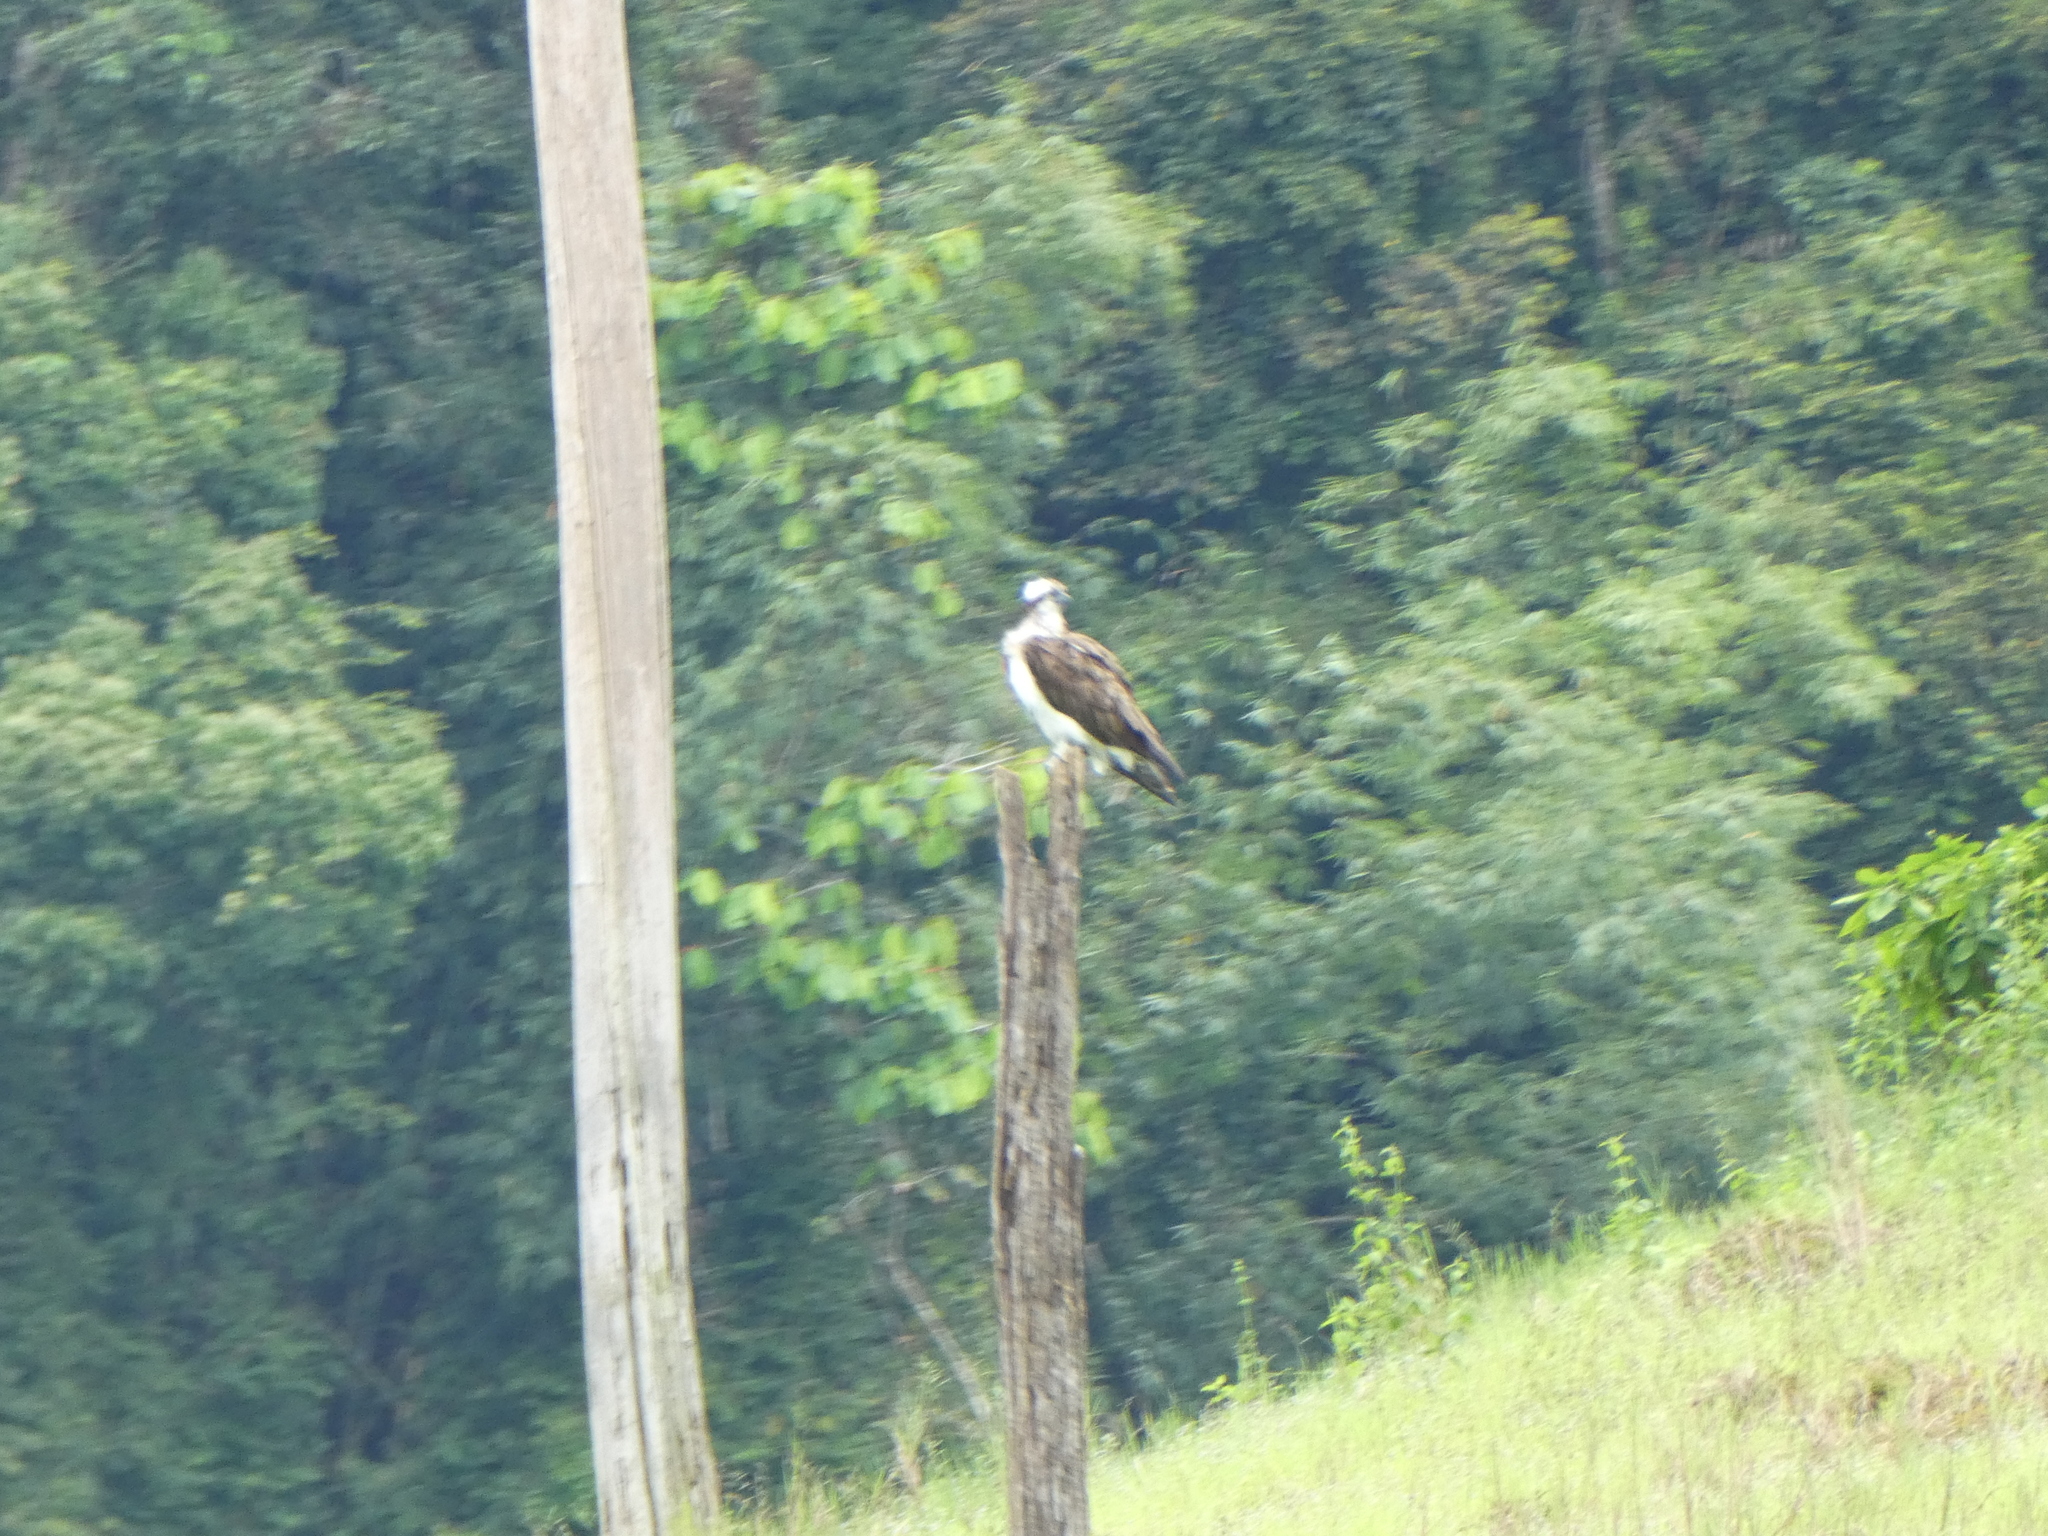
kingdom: Animalia
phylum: Chordata
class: Aves
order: Accipitriformes
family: Pandionidae
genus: Pandion
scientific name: Pandion haliaetus
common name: Osprey
